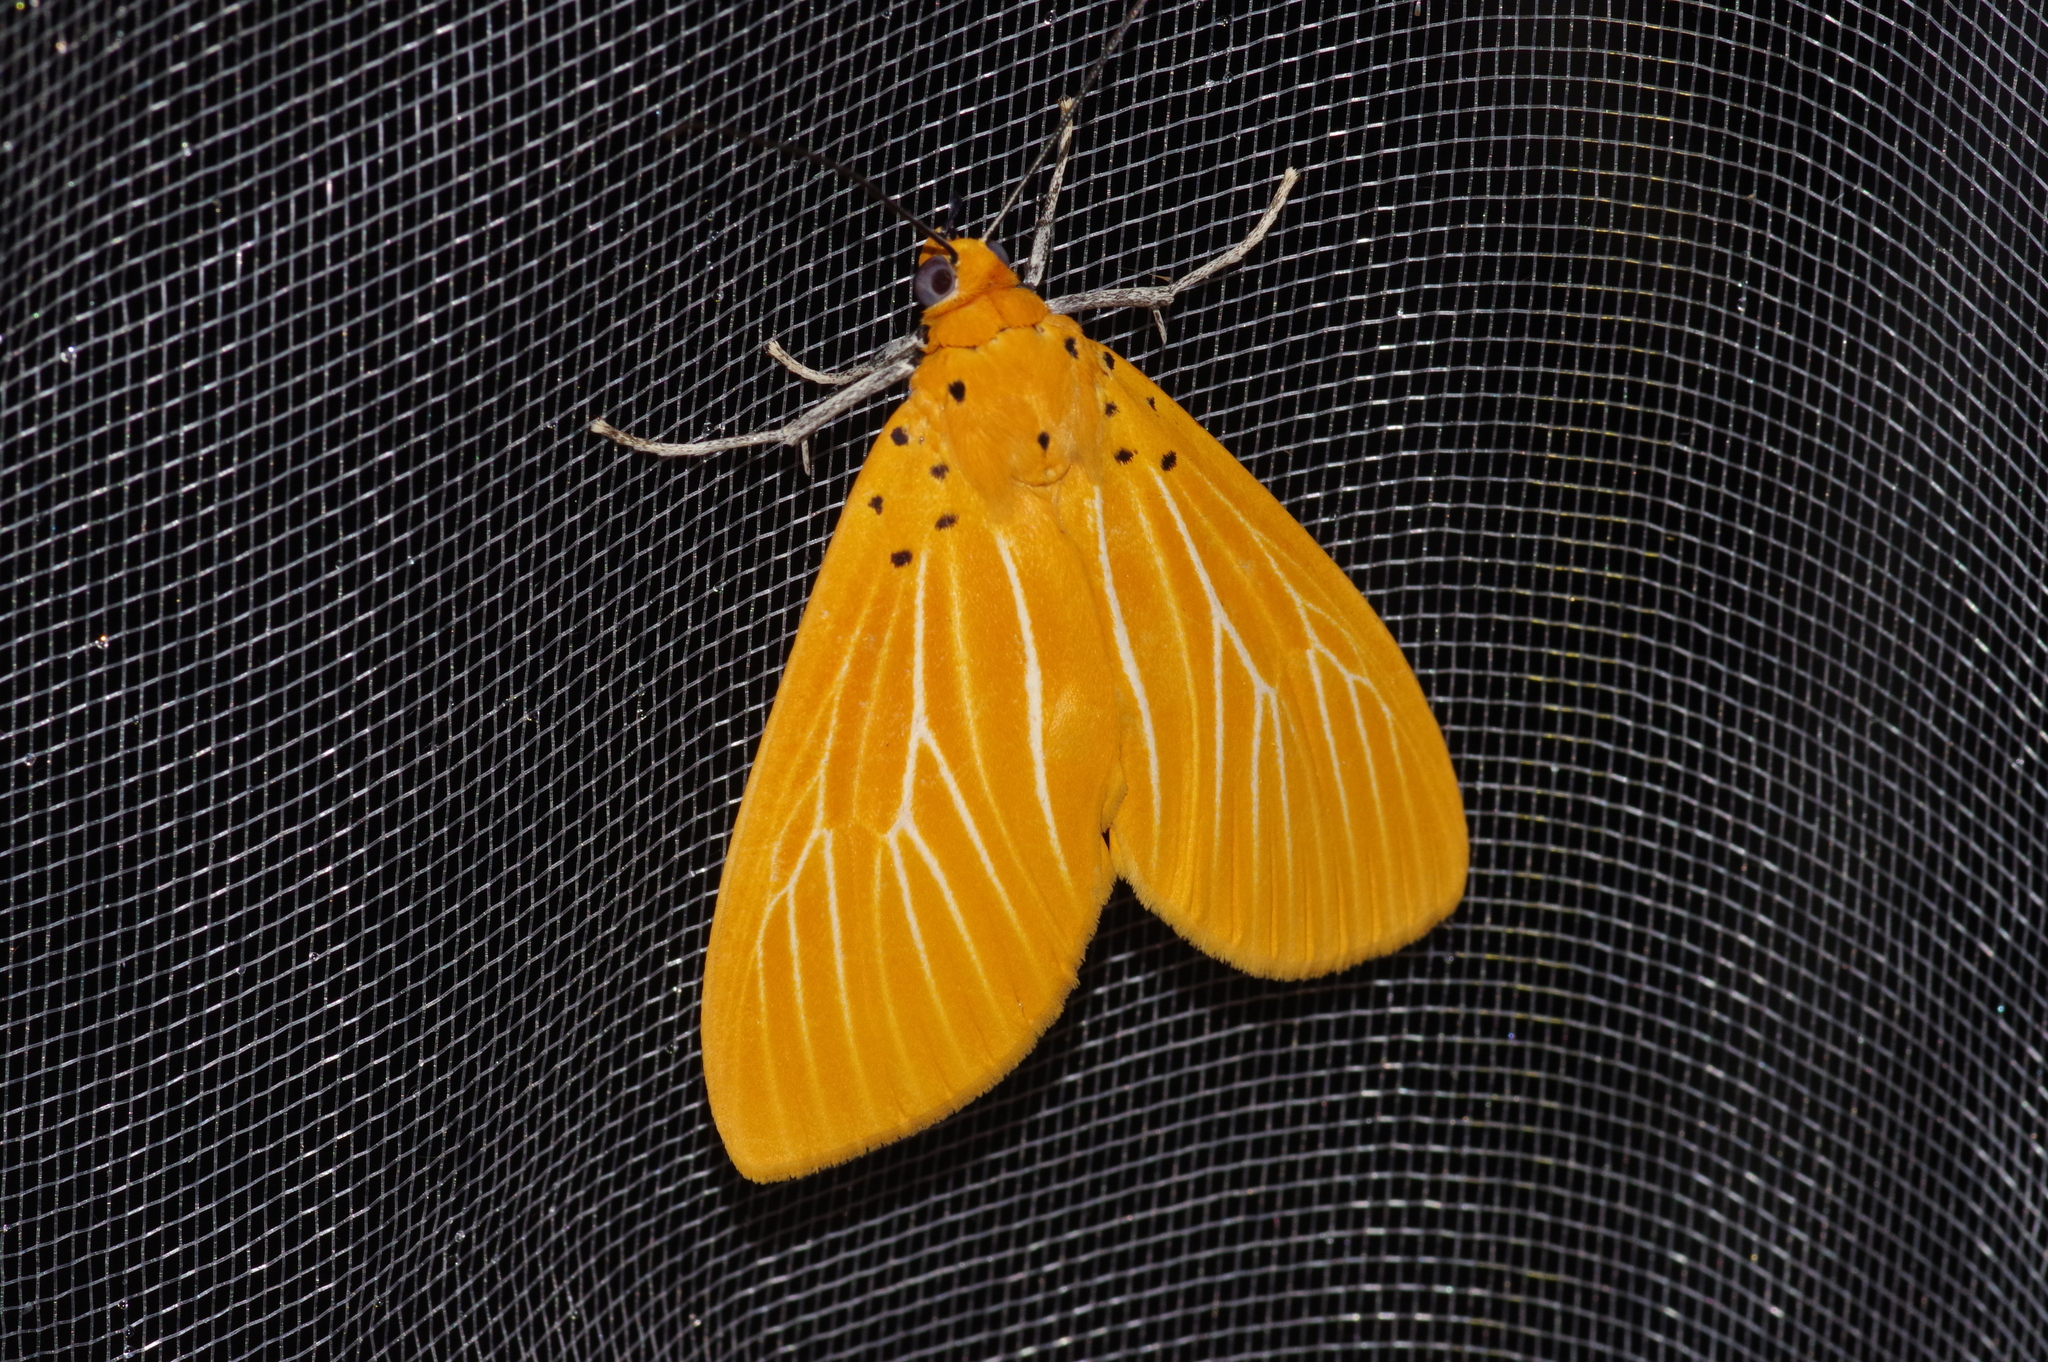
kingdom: Animalia
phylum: Arthropoda
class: Insecta
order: Lepidoptera
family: Erebidae
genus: Asota
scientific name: Asota egens
